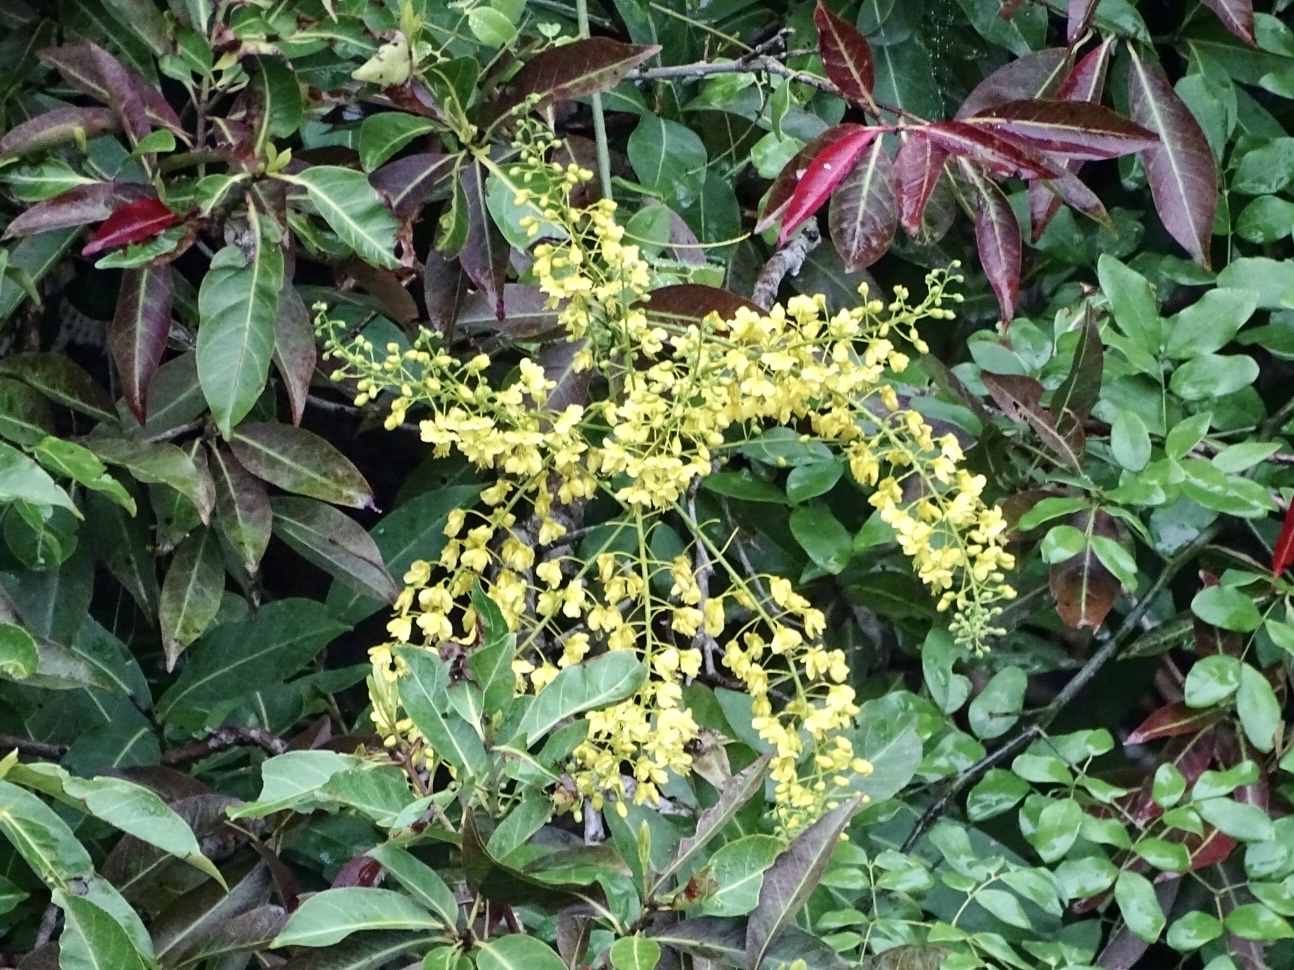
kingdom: Plantae
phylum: Tracheophyta
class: Magnoliopsida
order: Fabales
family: Fabaceae
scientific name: Fabaceae
